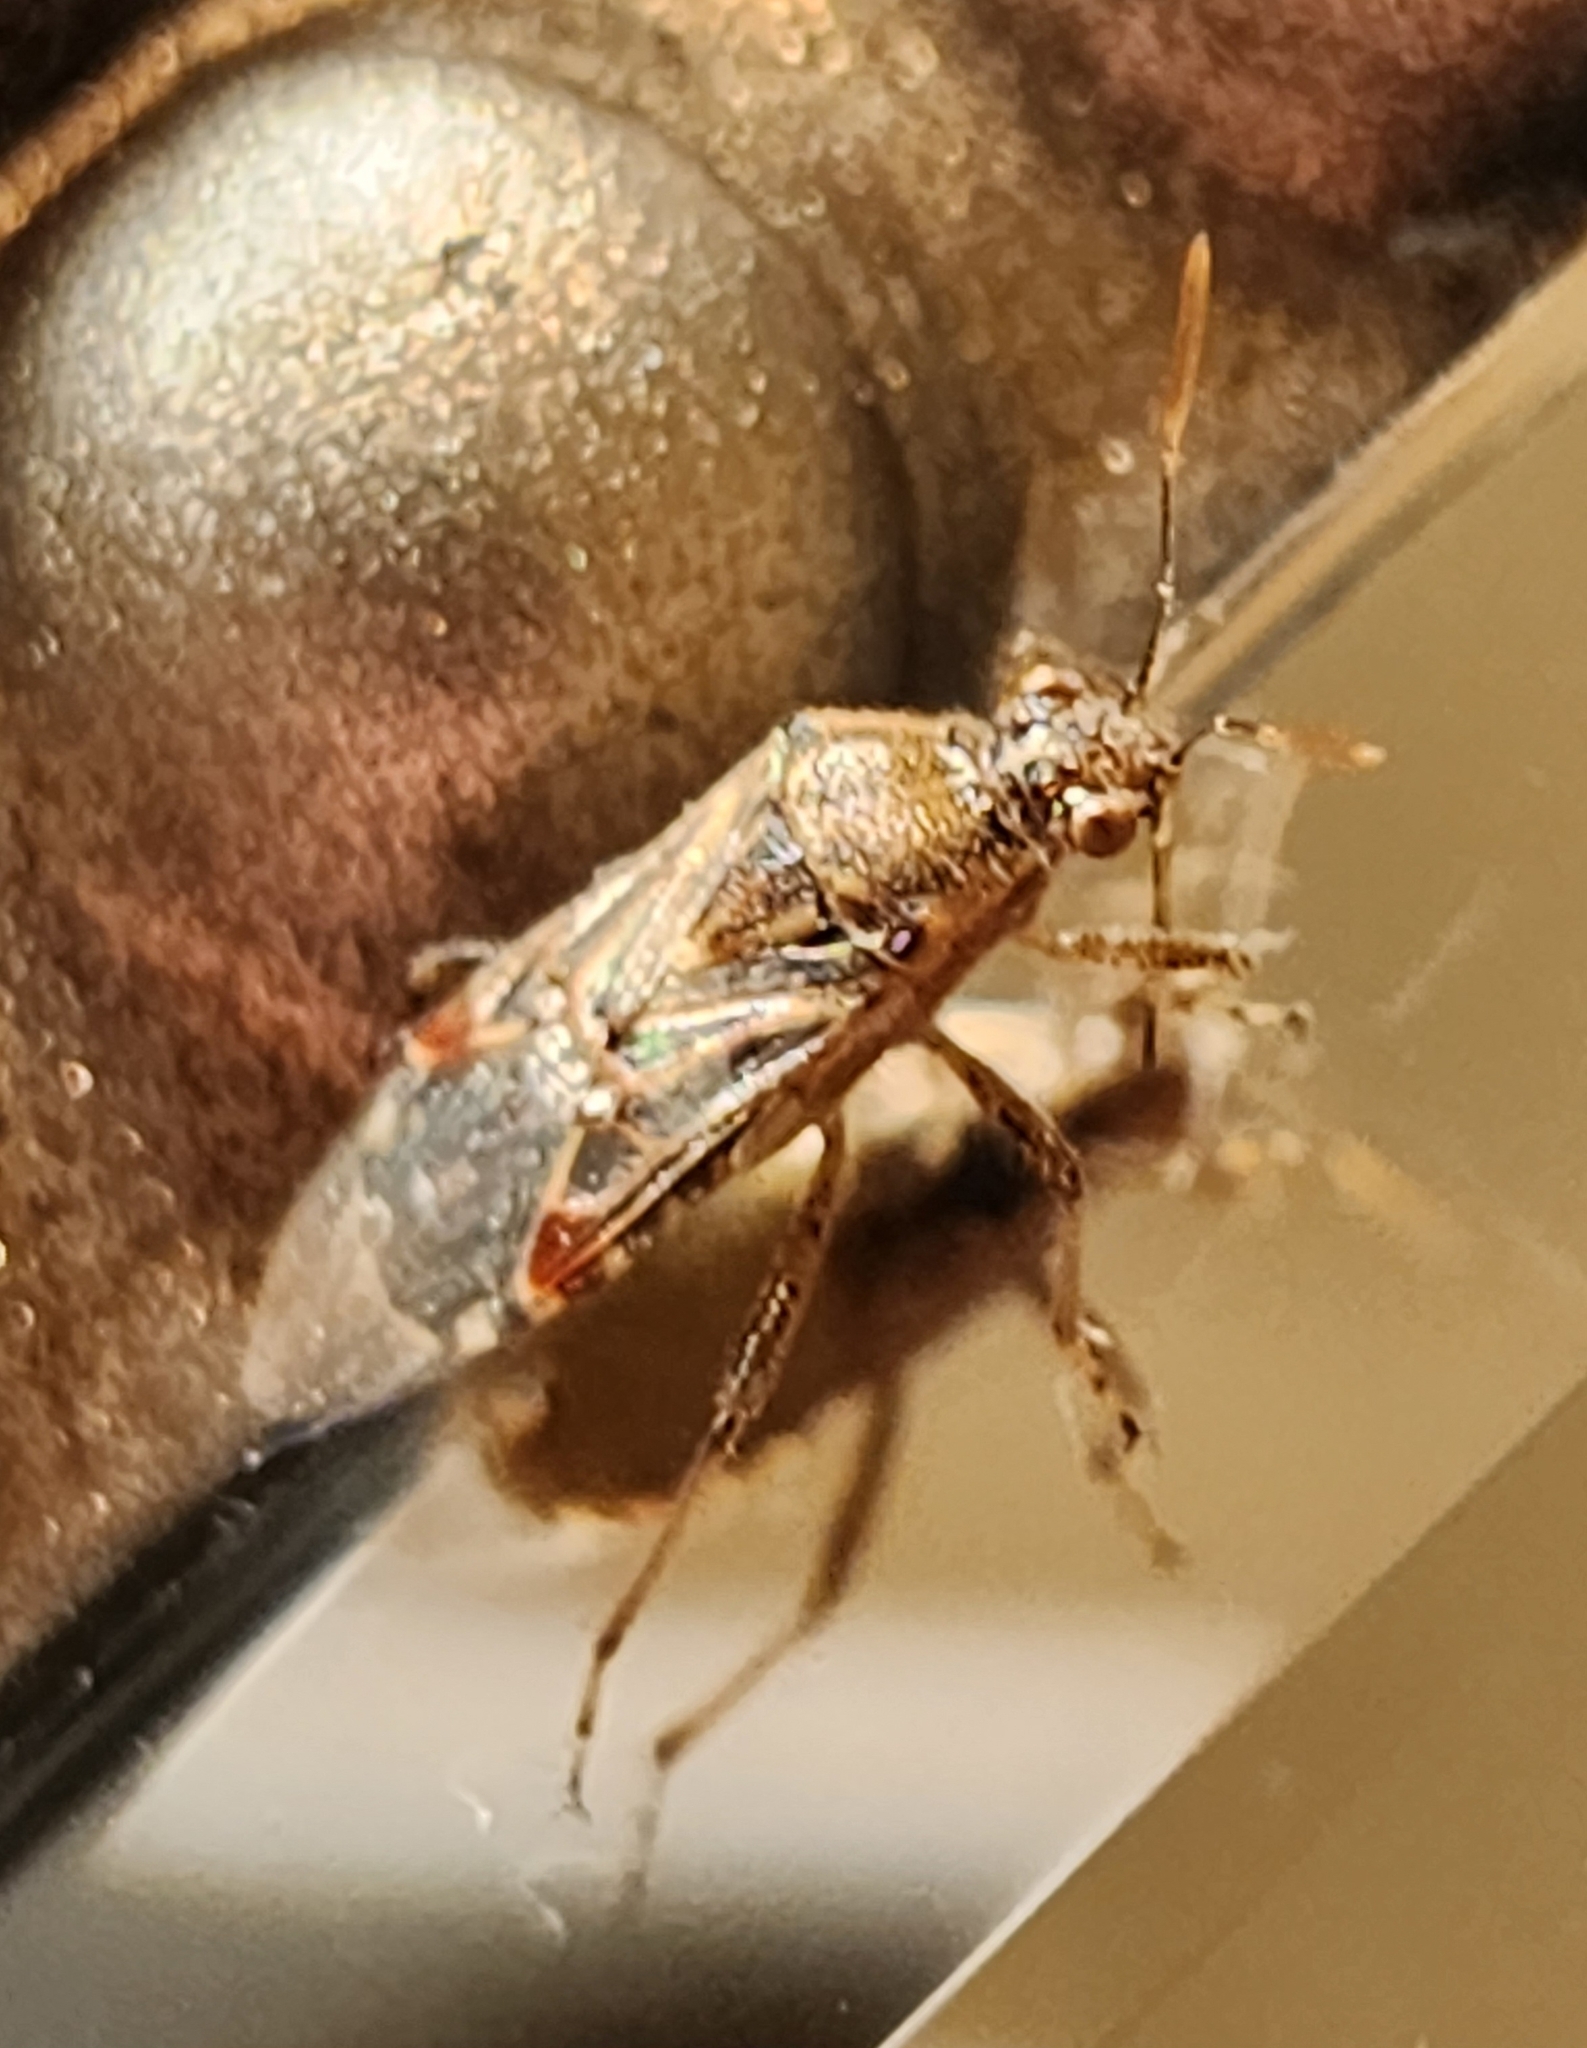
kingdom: Animalia
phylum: Arthropoda
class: Insecta
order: Hemiptera
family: Rhopalidae
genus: Liorhyssus
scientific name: Liorhyssus hyalinus
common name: Scentless plant bug
